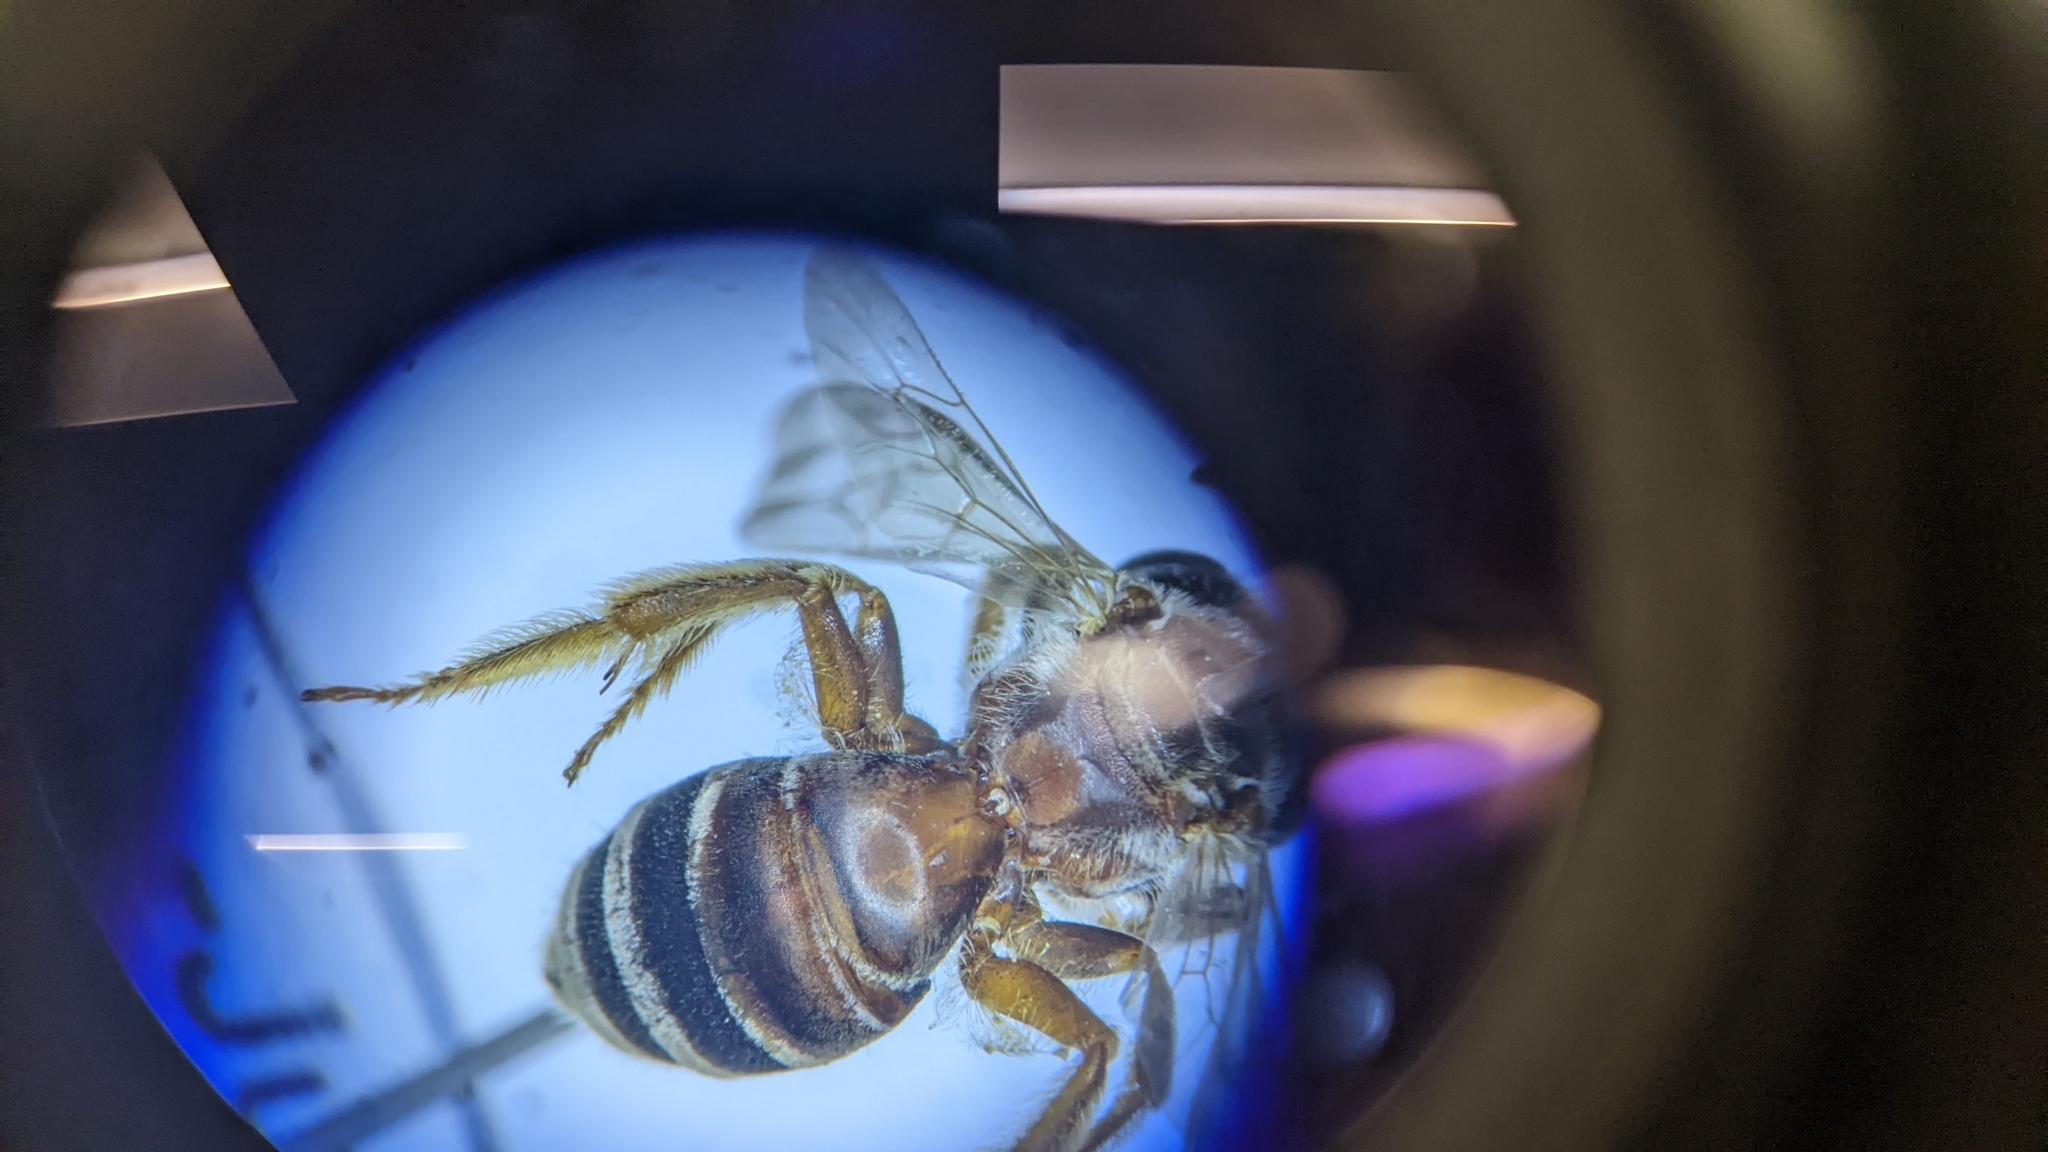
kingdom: Animalia
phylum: Arthropoda
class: Insecta
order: Hymenoptera
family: Halictidae
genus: Halictus
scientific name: Halictus ligatus
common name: Ligated furrow bee
